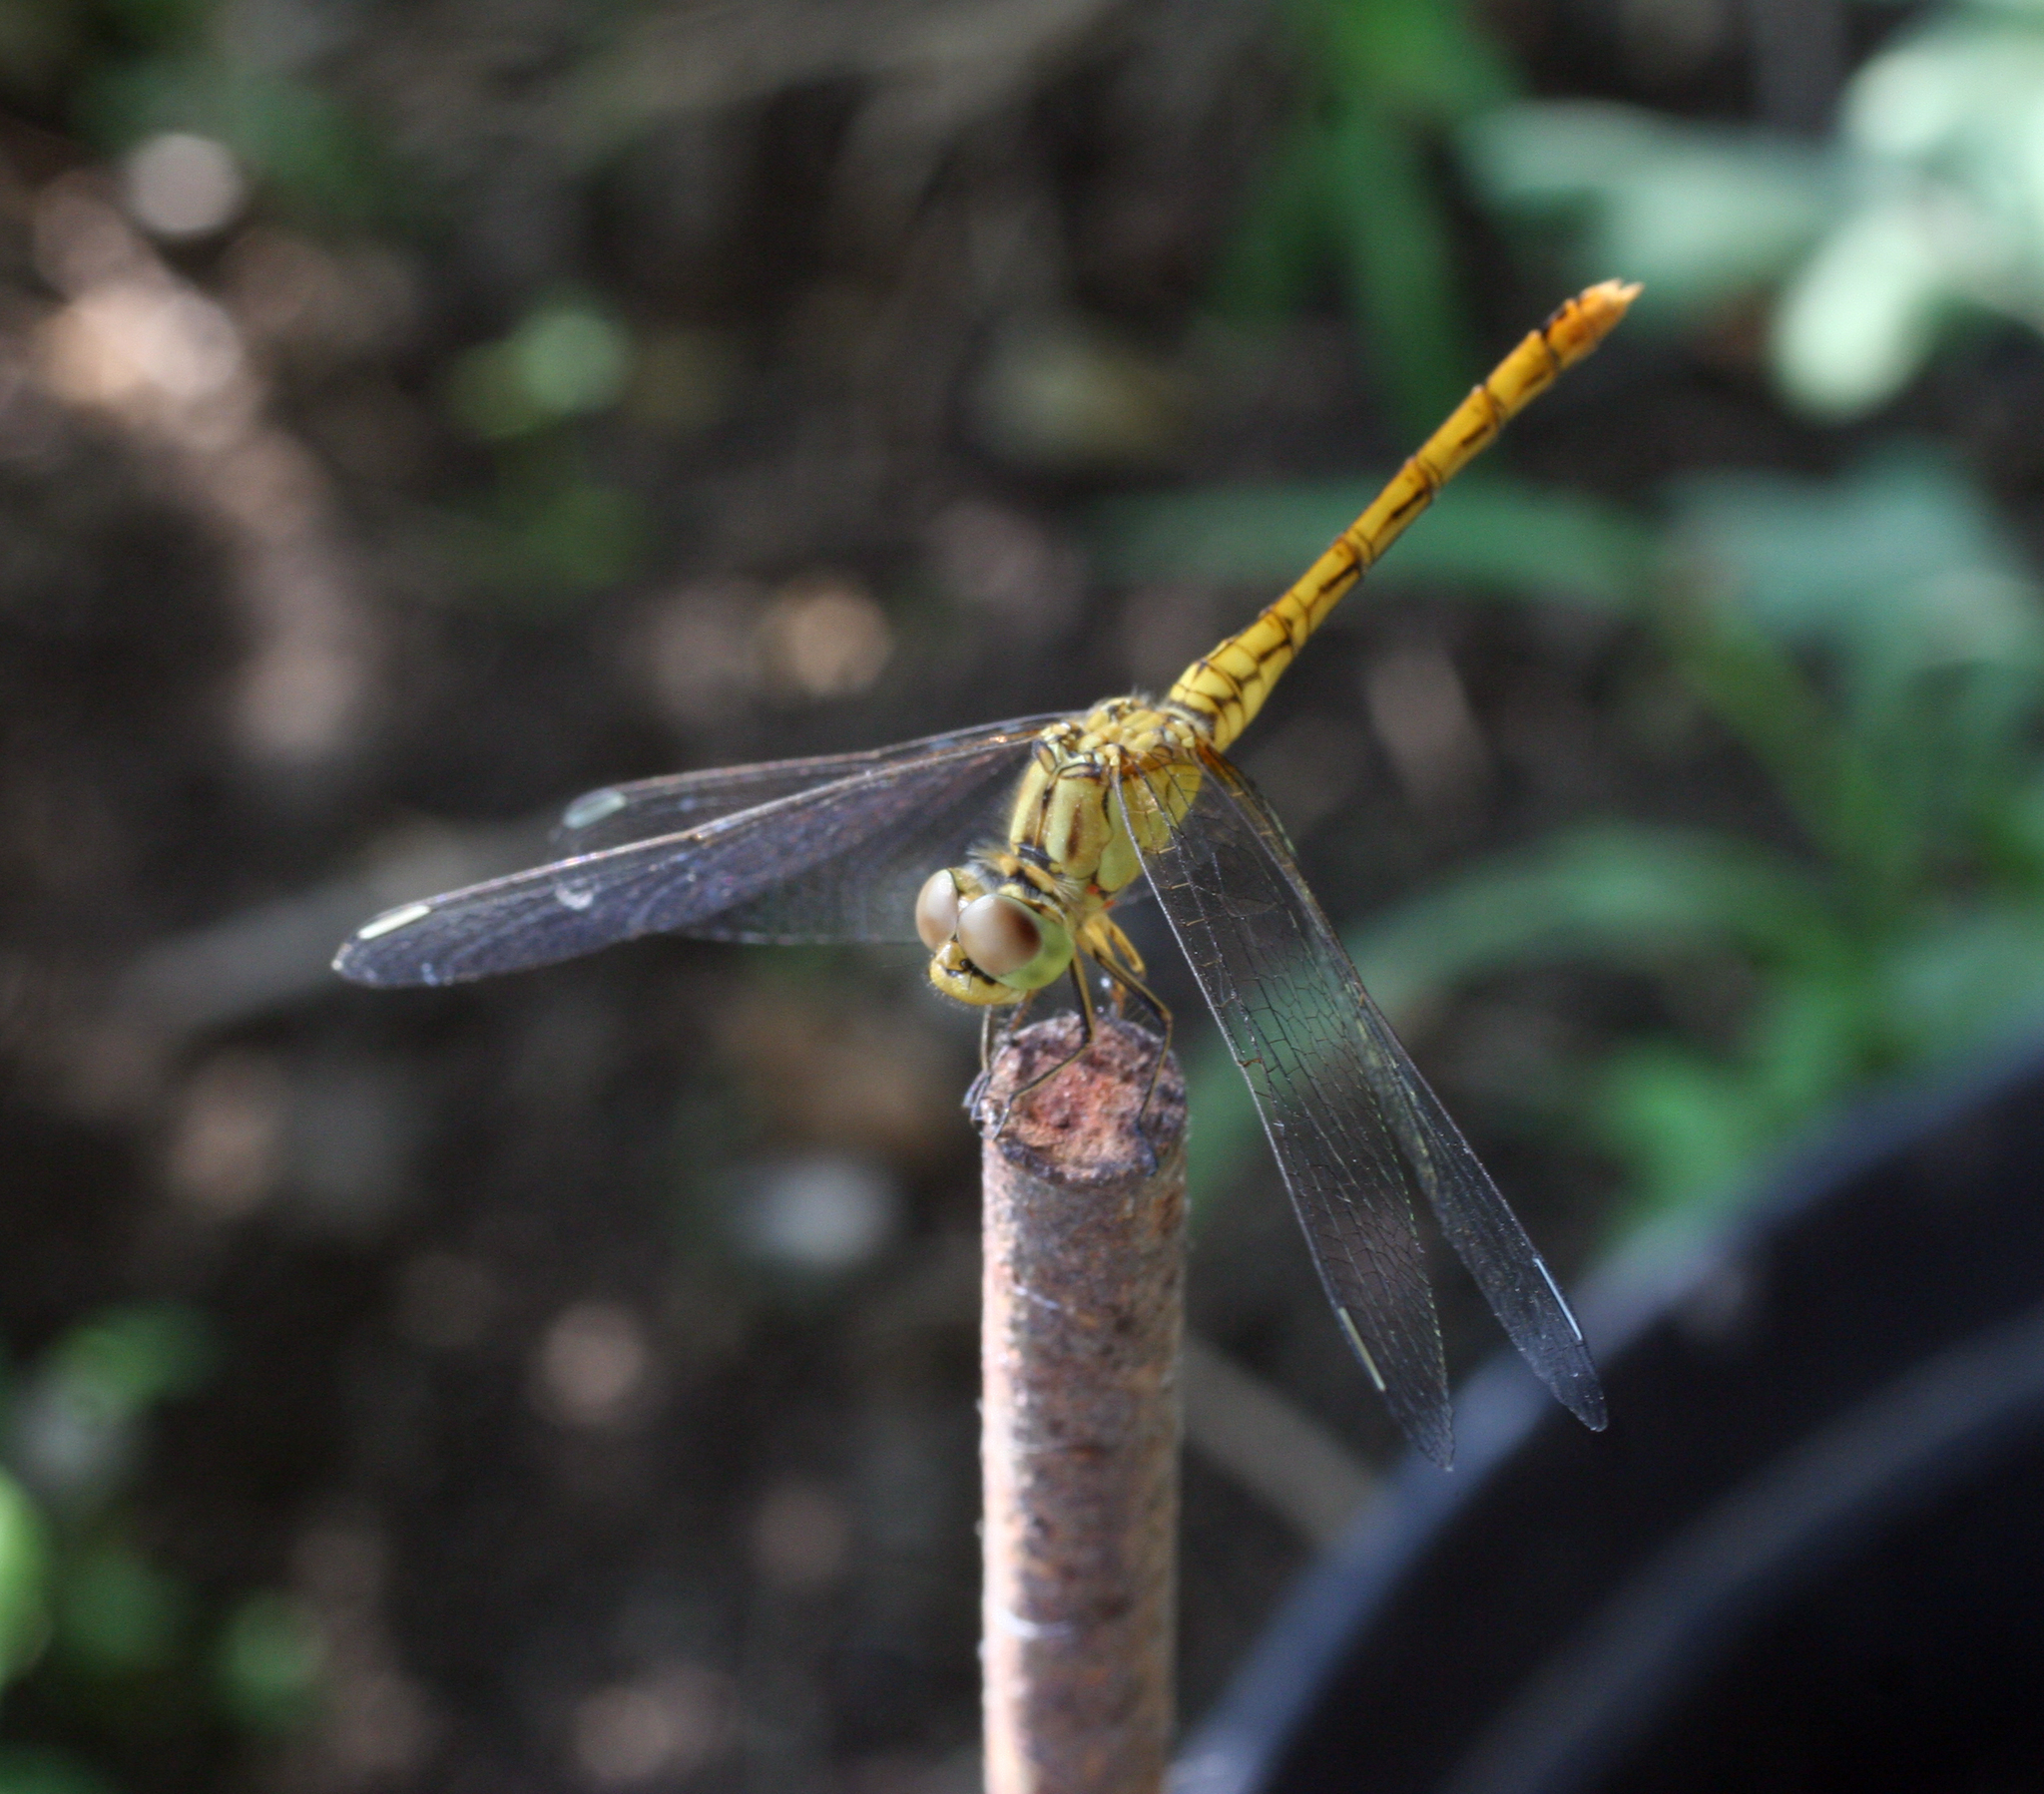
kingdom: Animalia
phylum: Arthropoda
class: Insecta
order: Odonata
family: Libellulidae
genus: Sympetrum
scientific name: Sympetrum meridionale
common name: Southern darter
